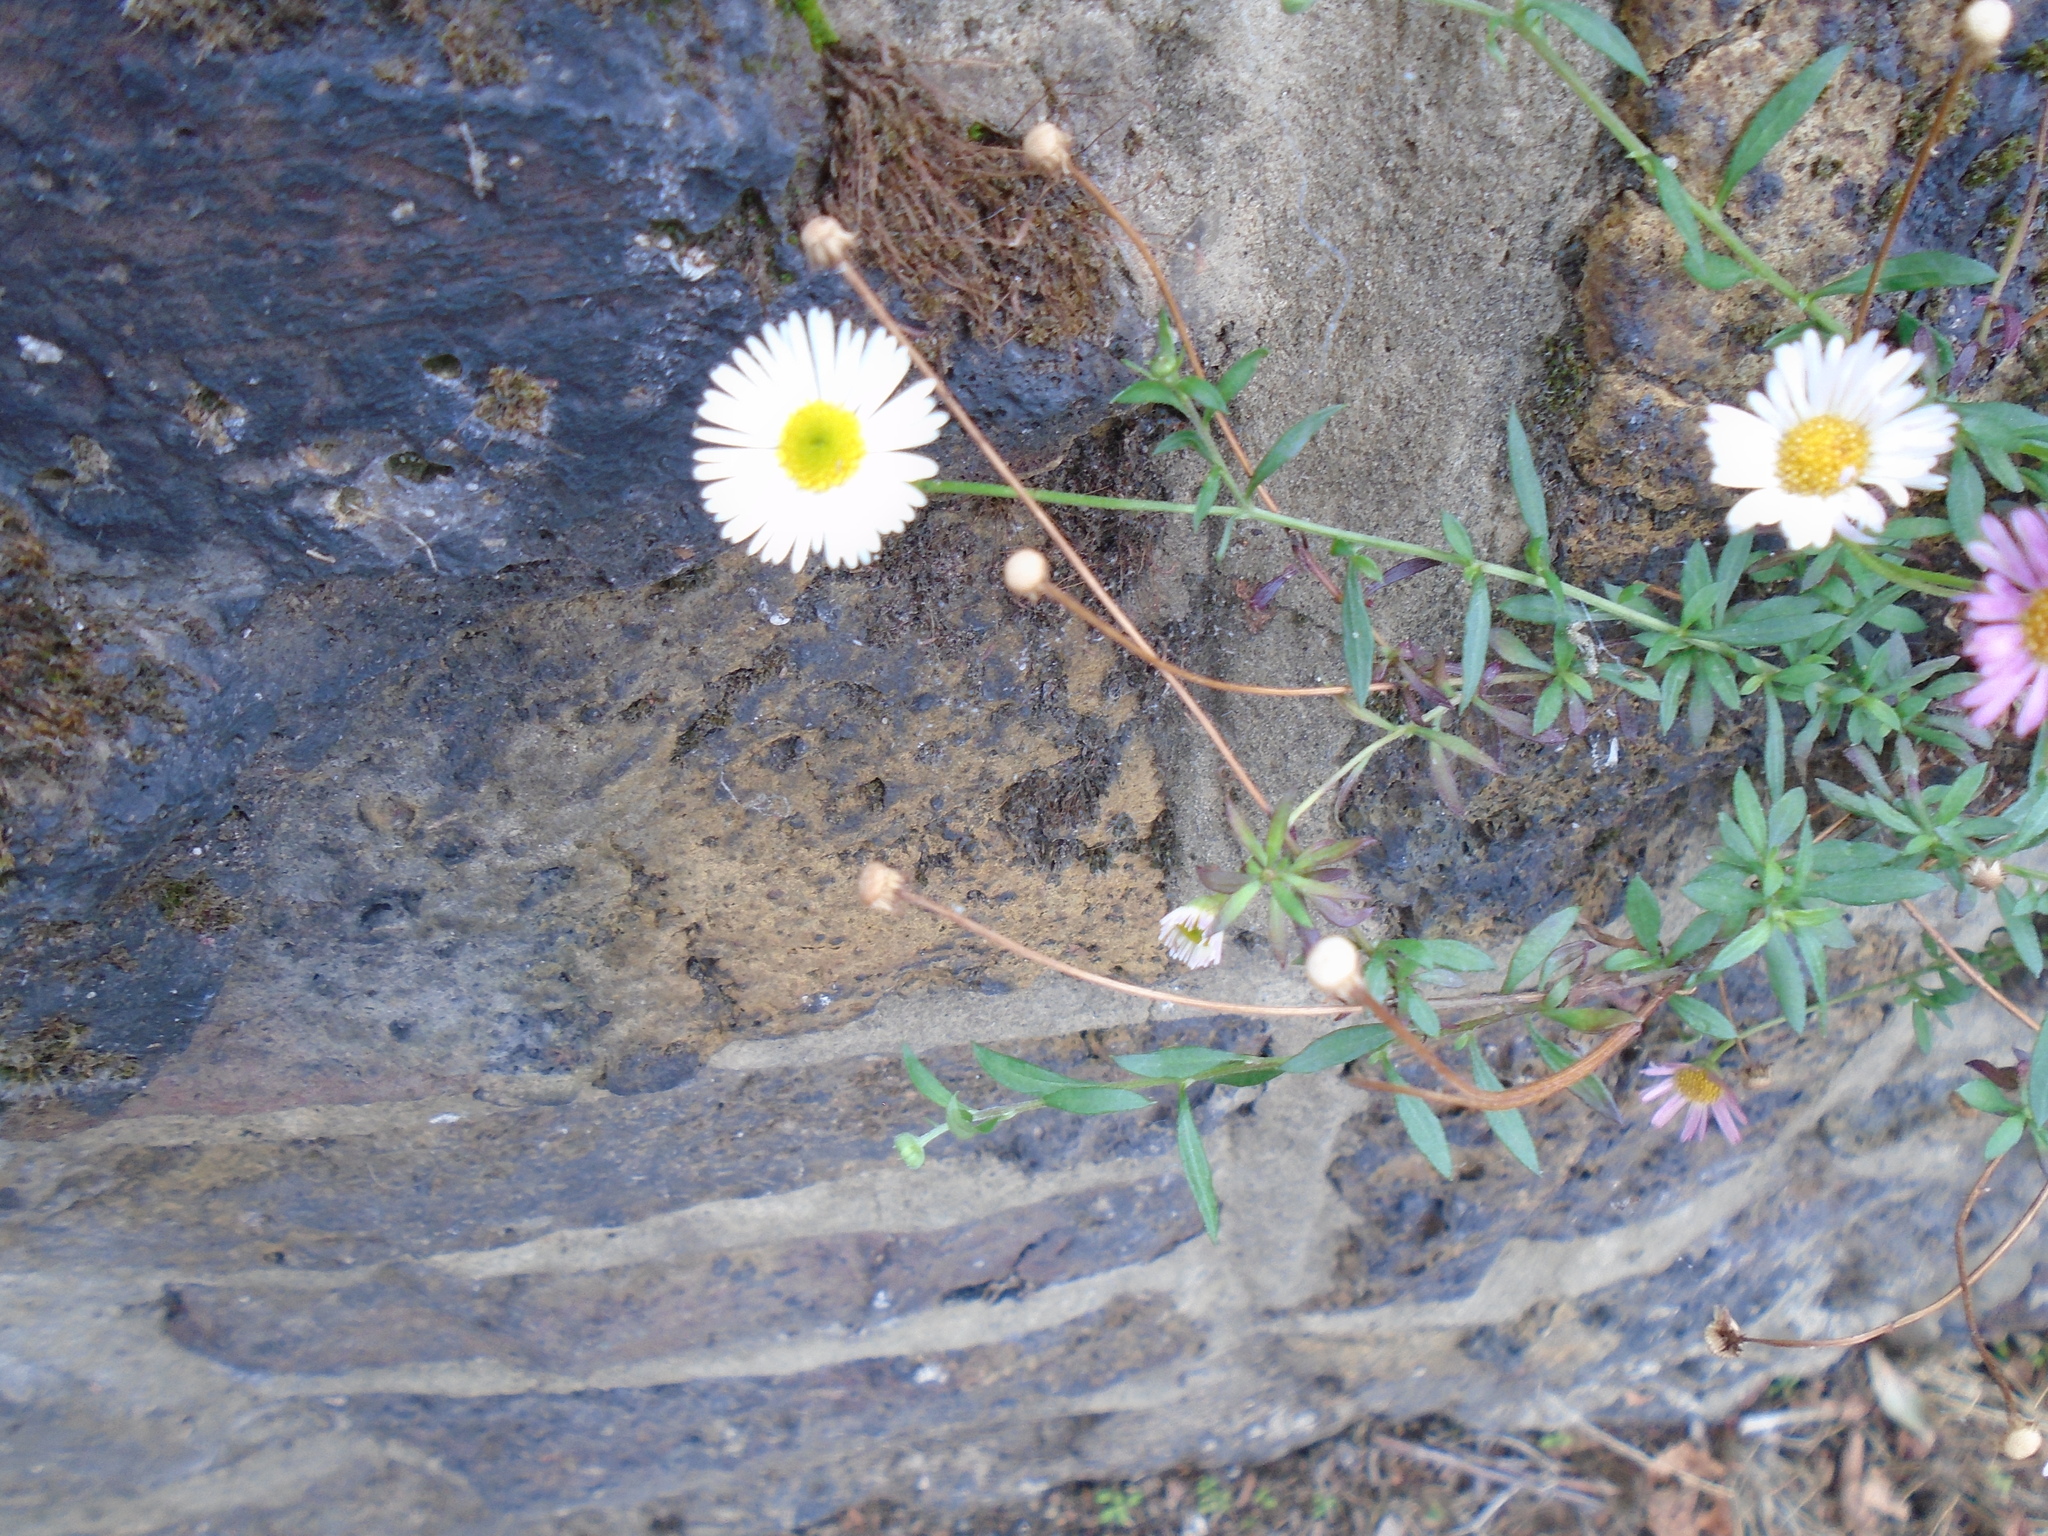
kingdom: Plantae
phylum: Tracheophyta
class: Magnoliopsida
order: Asterales
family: Asteraceae
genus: Erigeron
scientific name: Erigeron karvinskianus
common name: Mexican fleabane
